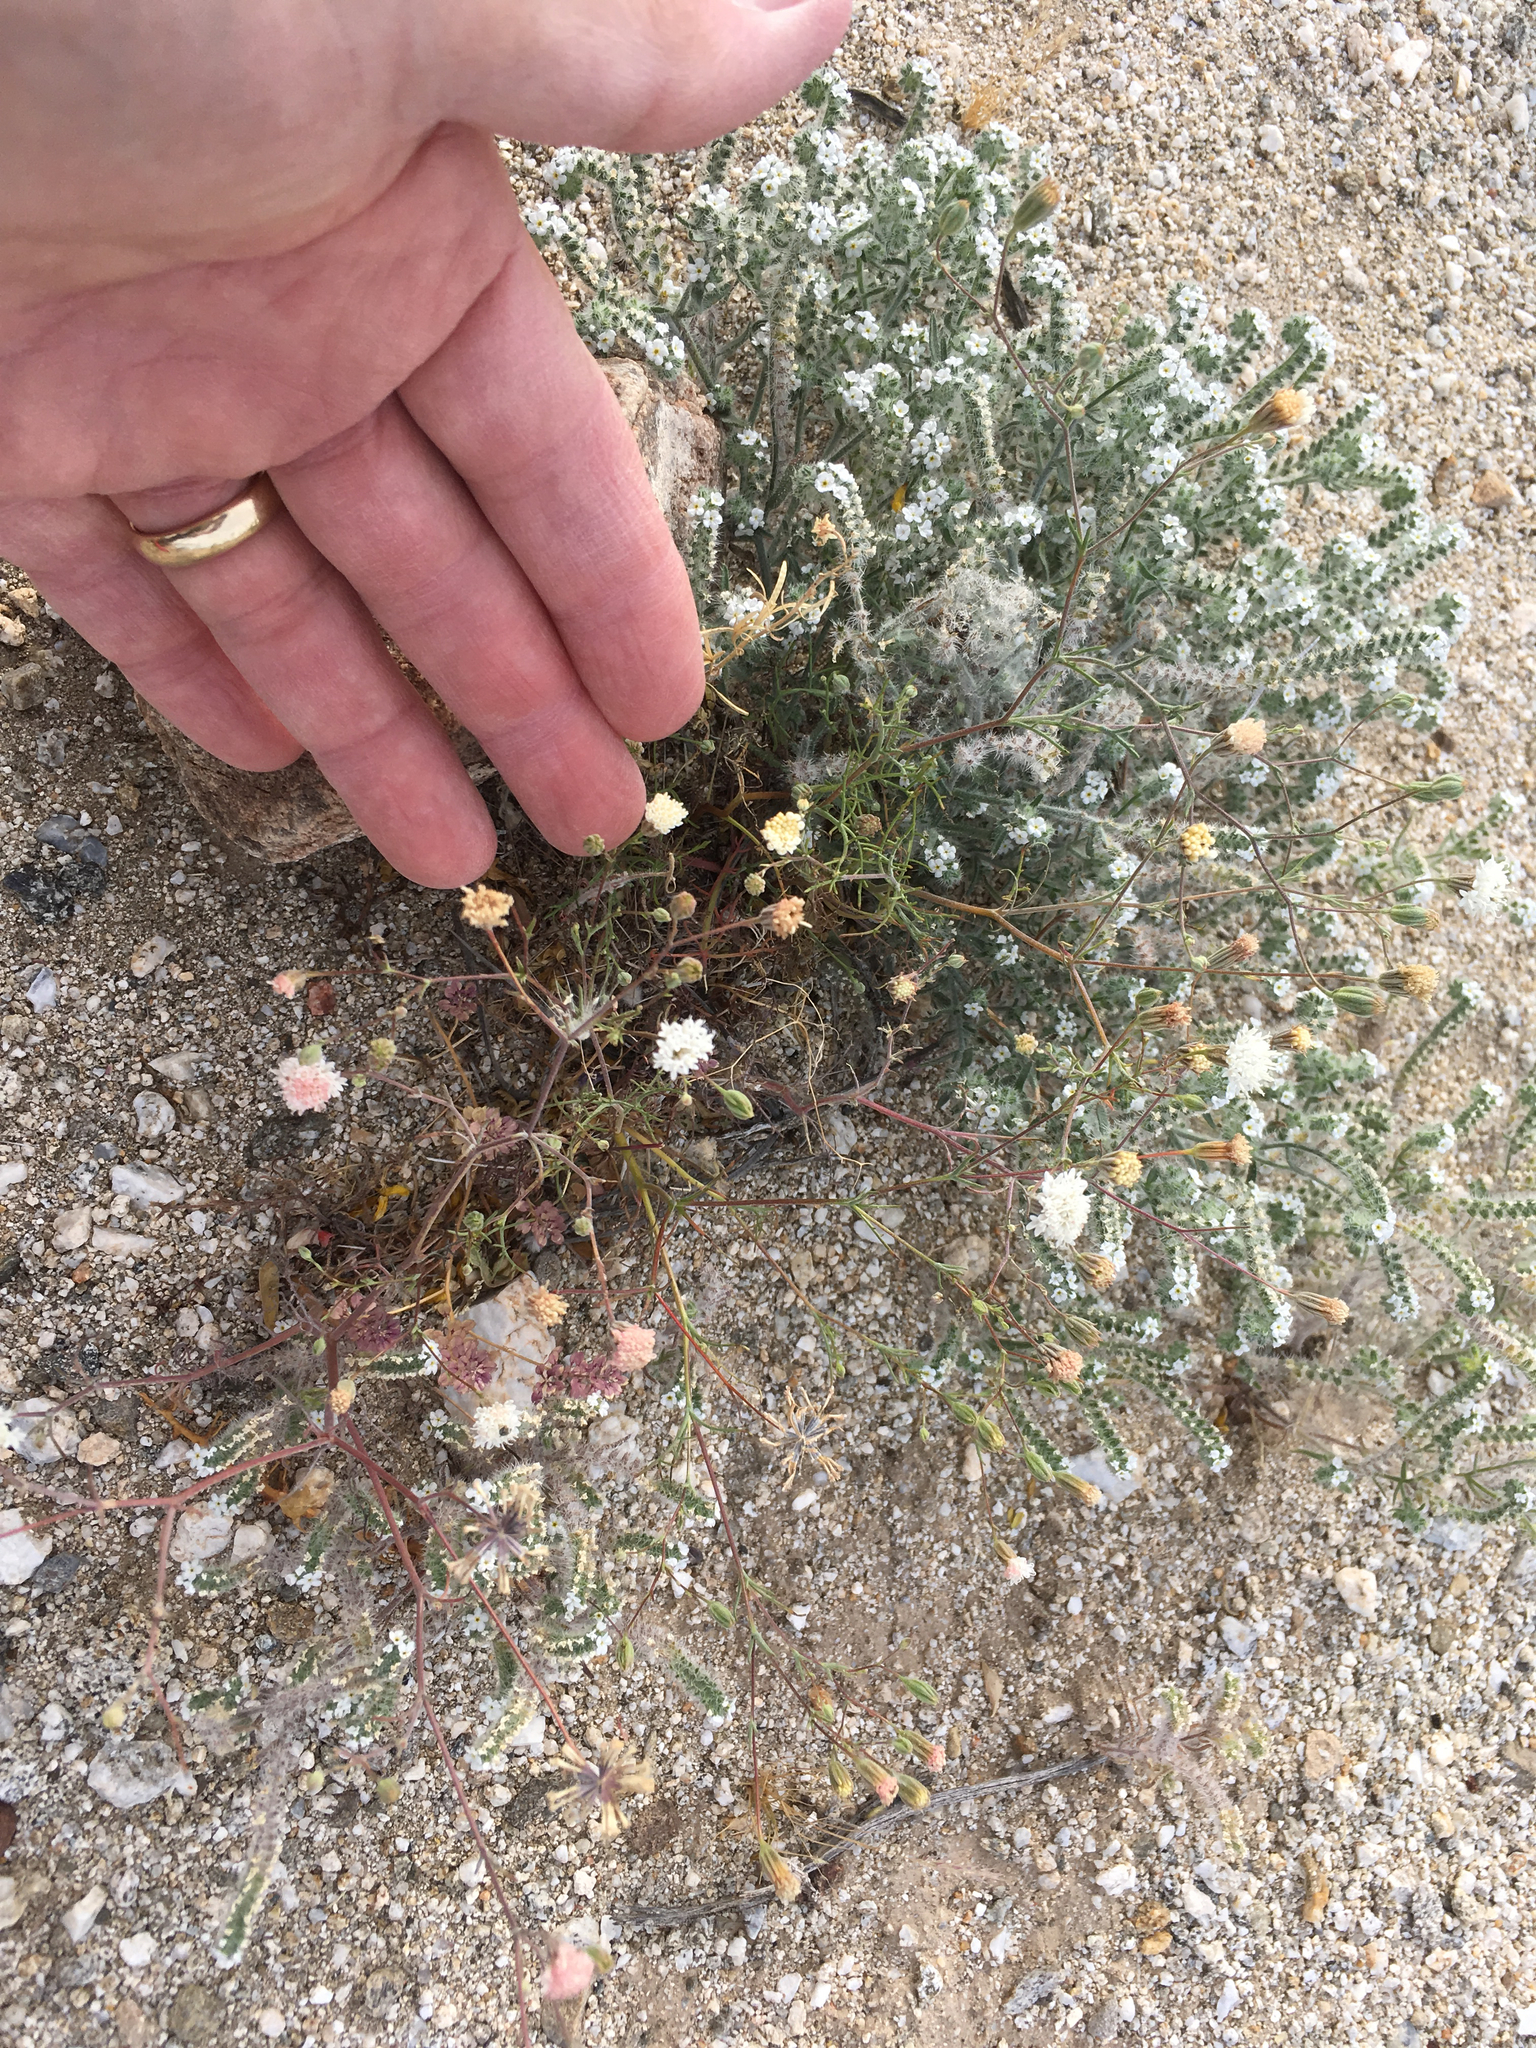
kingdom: Plantae
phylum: Tracheophyta
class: Magnoliopsida
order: Asterales
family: Asteraceae
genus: Chaenactis
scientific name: Chaenactis carphoclinia
